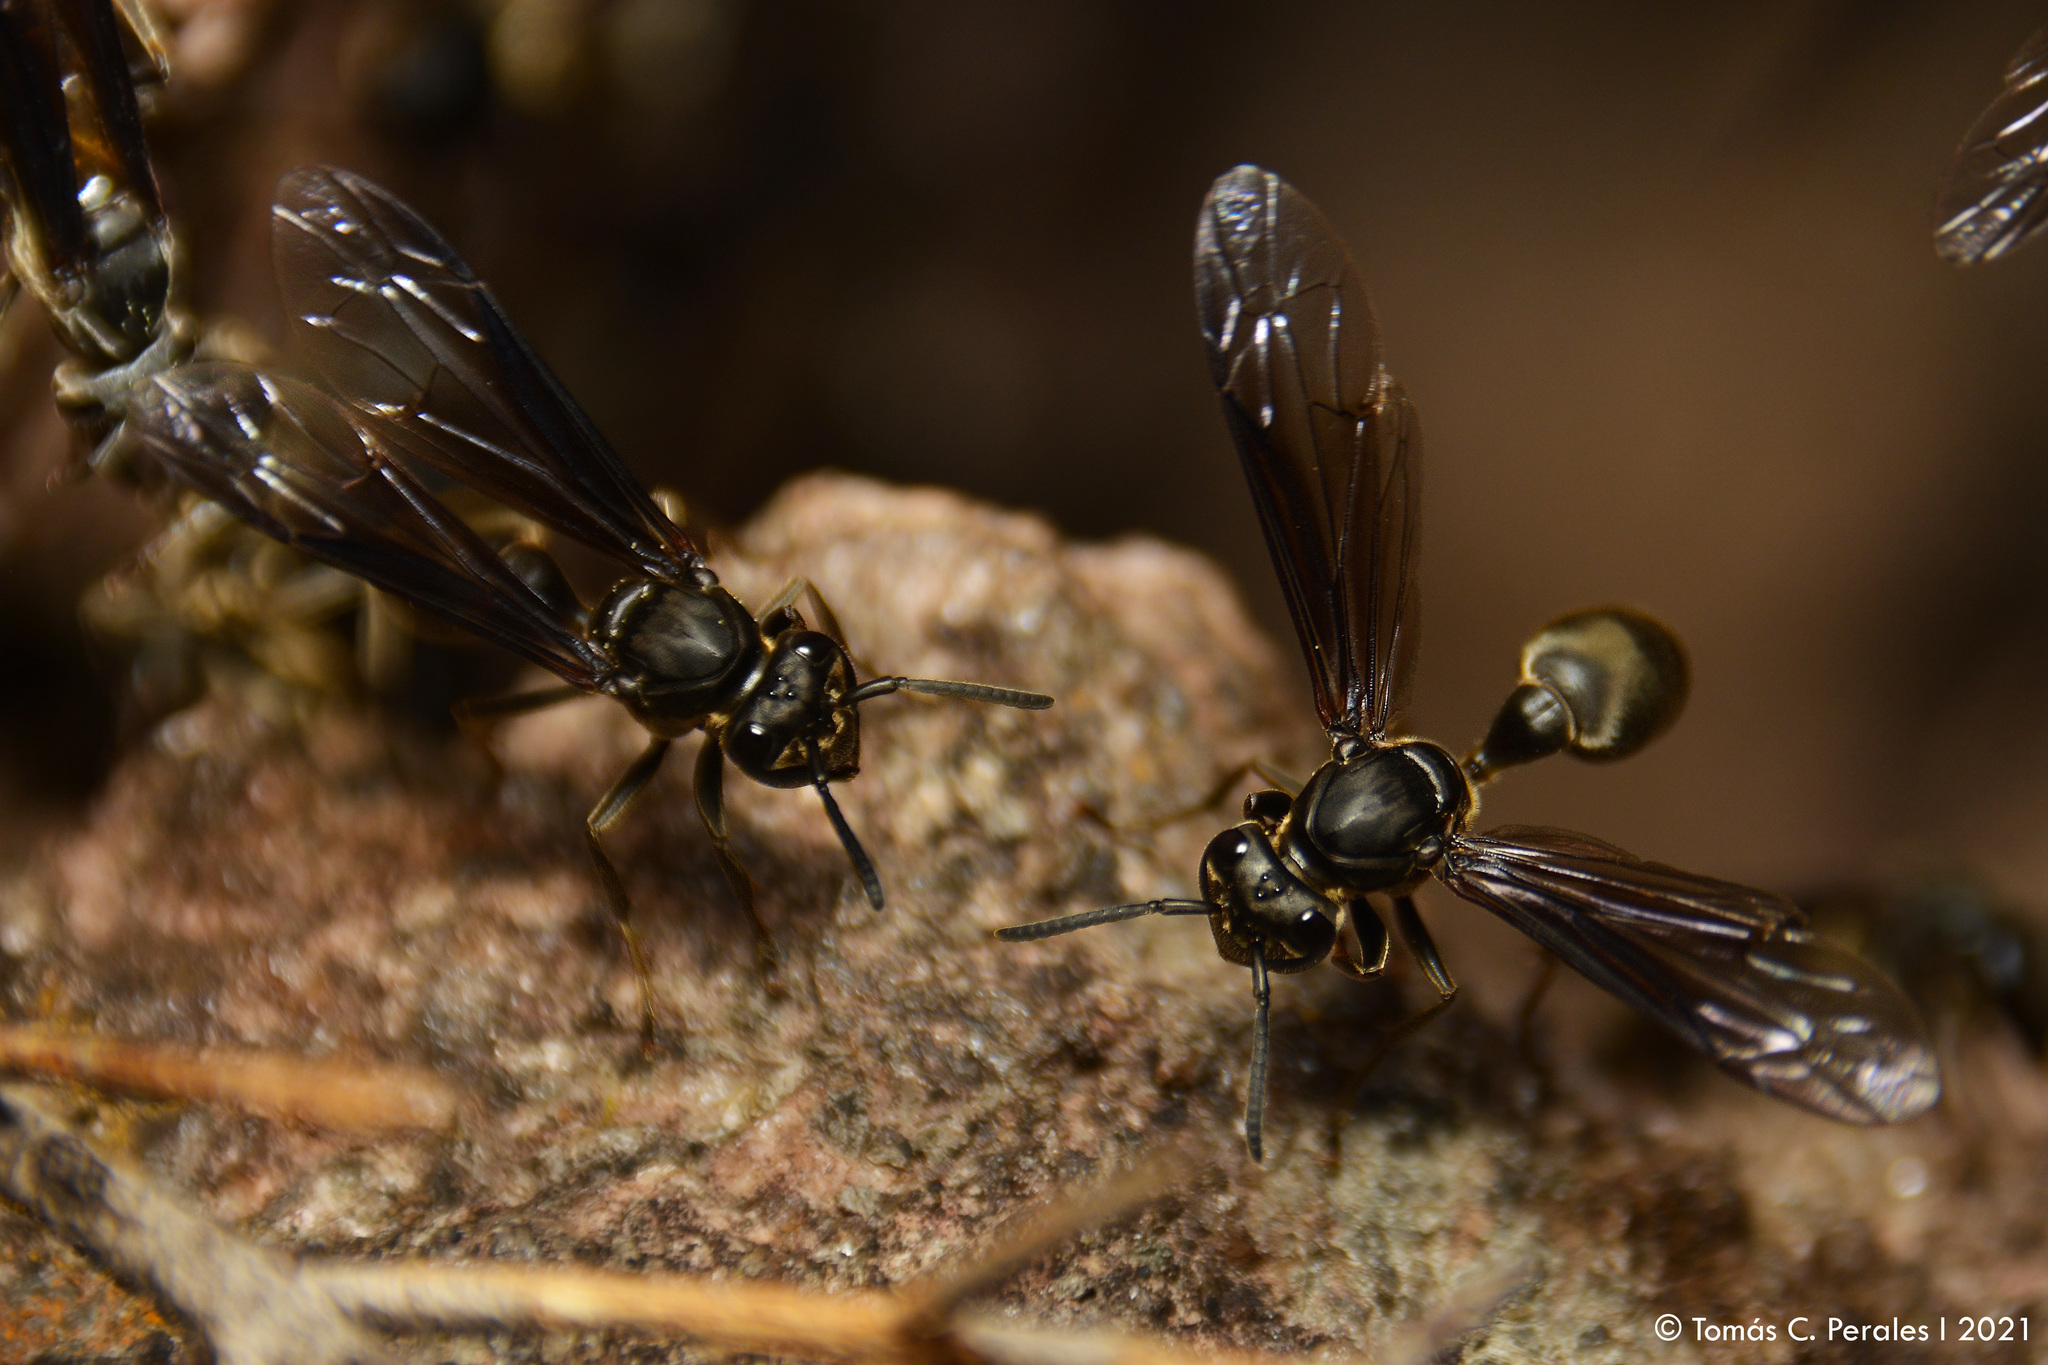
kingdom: Animalia
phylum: Arthropoda
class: Insecta
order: Hymenoptera
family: Eumenidae
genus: Polybia
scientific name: Polybia ignobilis
